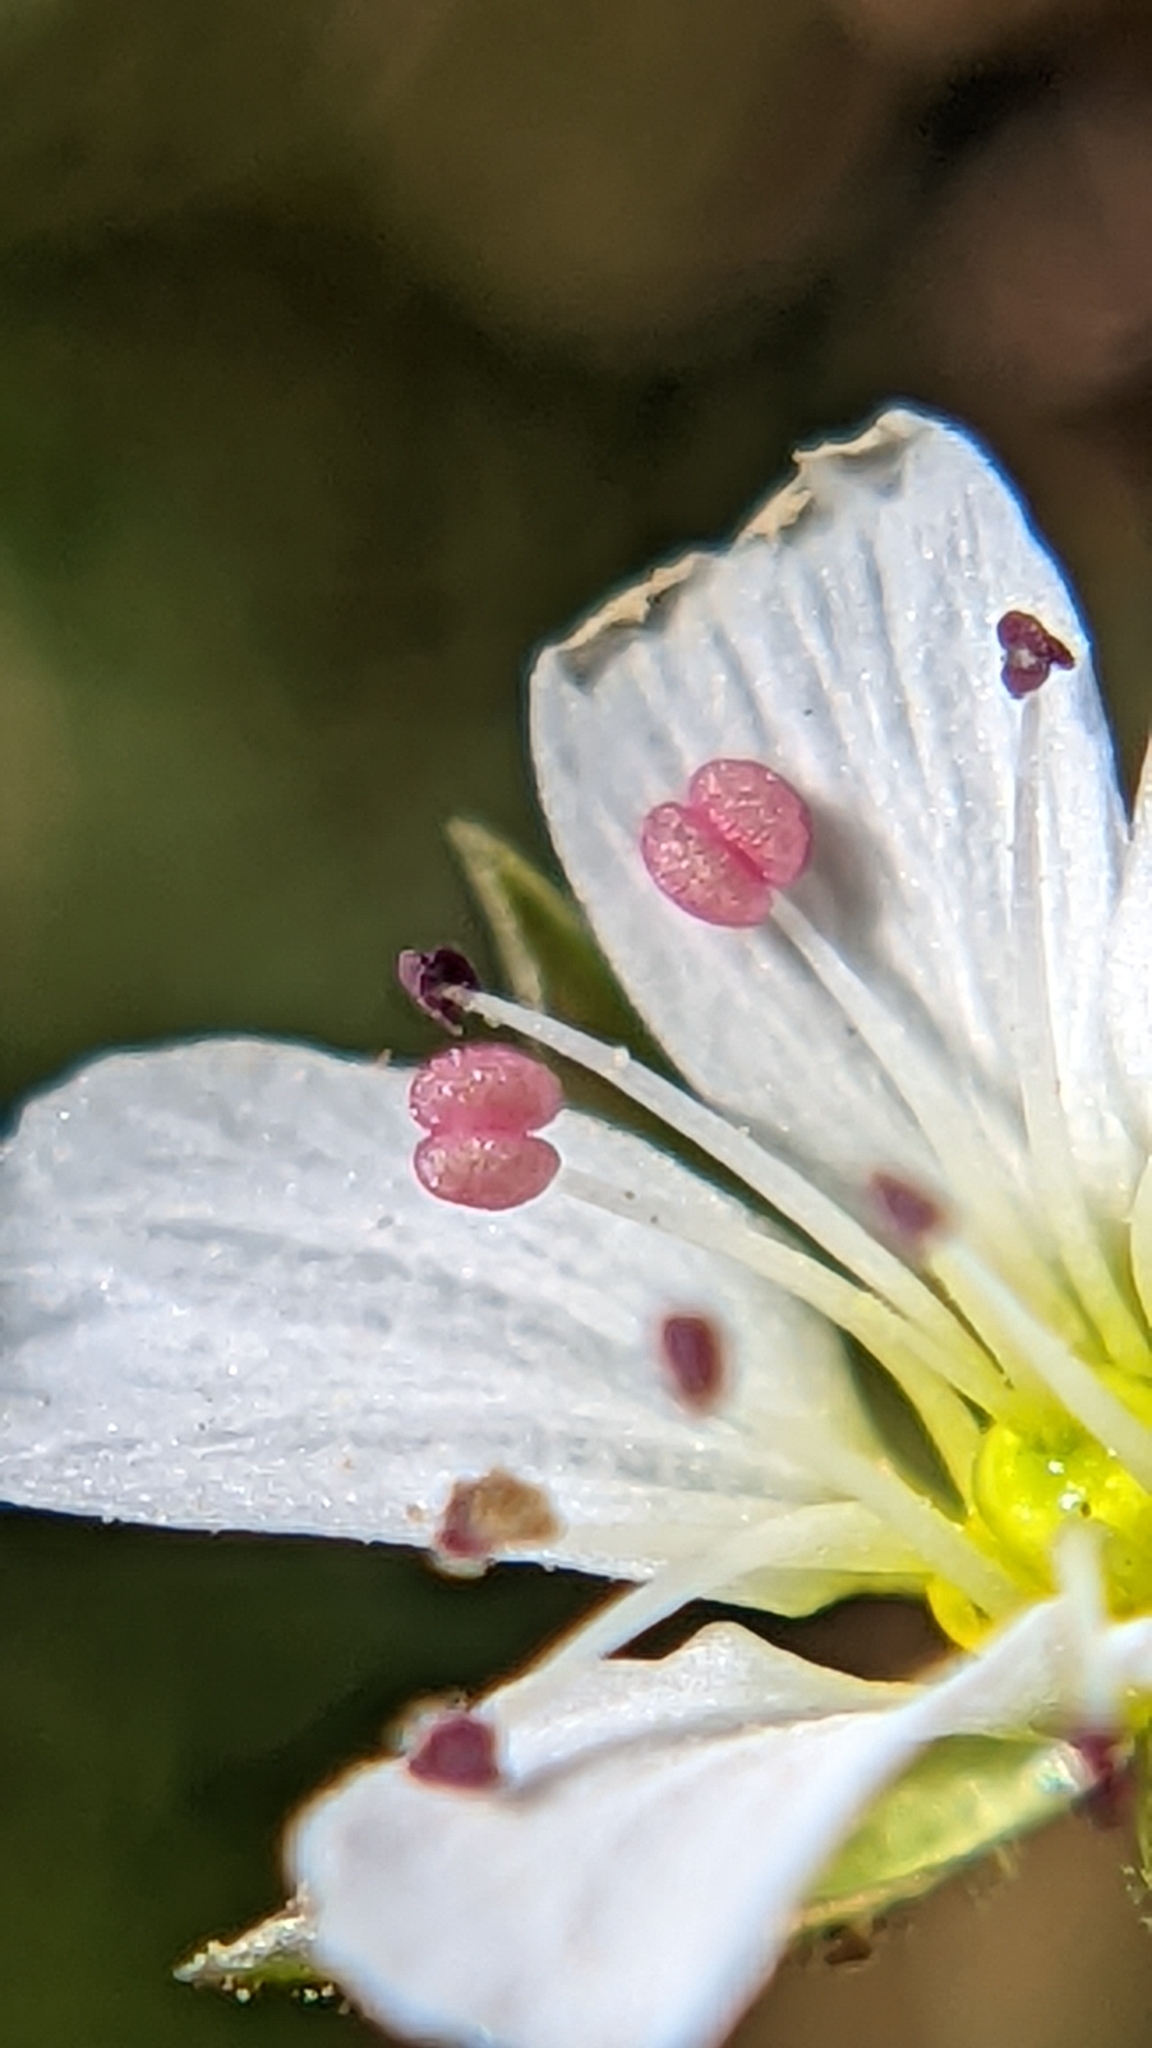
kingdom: Plantae
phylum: Tracheophyta
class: Magnoliopsida
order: Caryophyllales
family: Caryophyllaceae
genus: Eremogone
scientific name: Eremogone fendleri
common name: Fendler's sandwort
